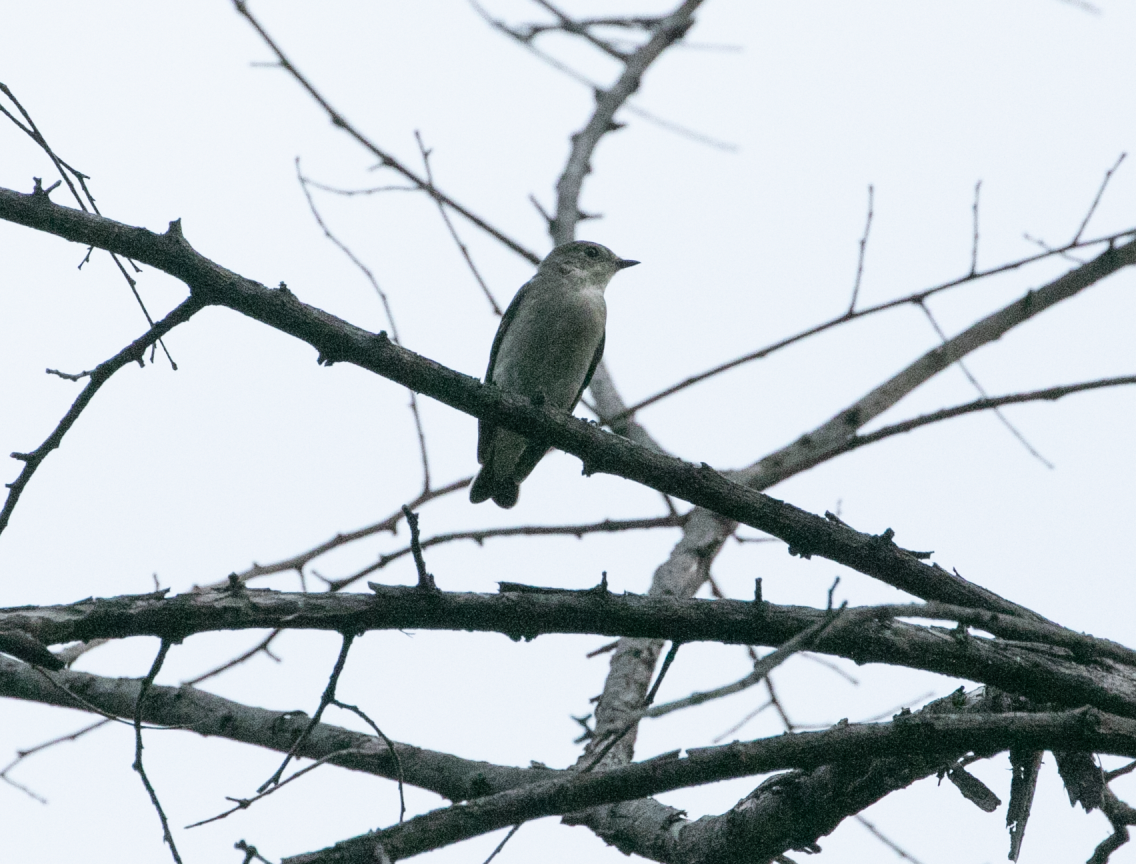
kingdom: Animalia
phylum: Chordata
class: Aves
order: Passeriformes
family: Muscicapidae
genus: Ficedula
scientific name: Ficedula hypoleuca
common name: European pied flycatcher
